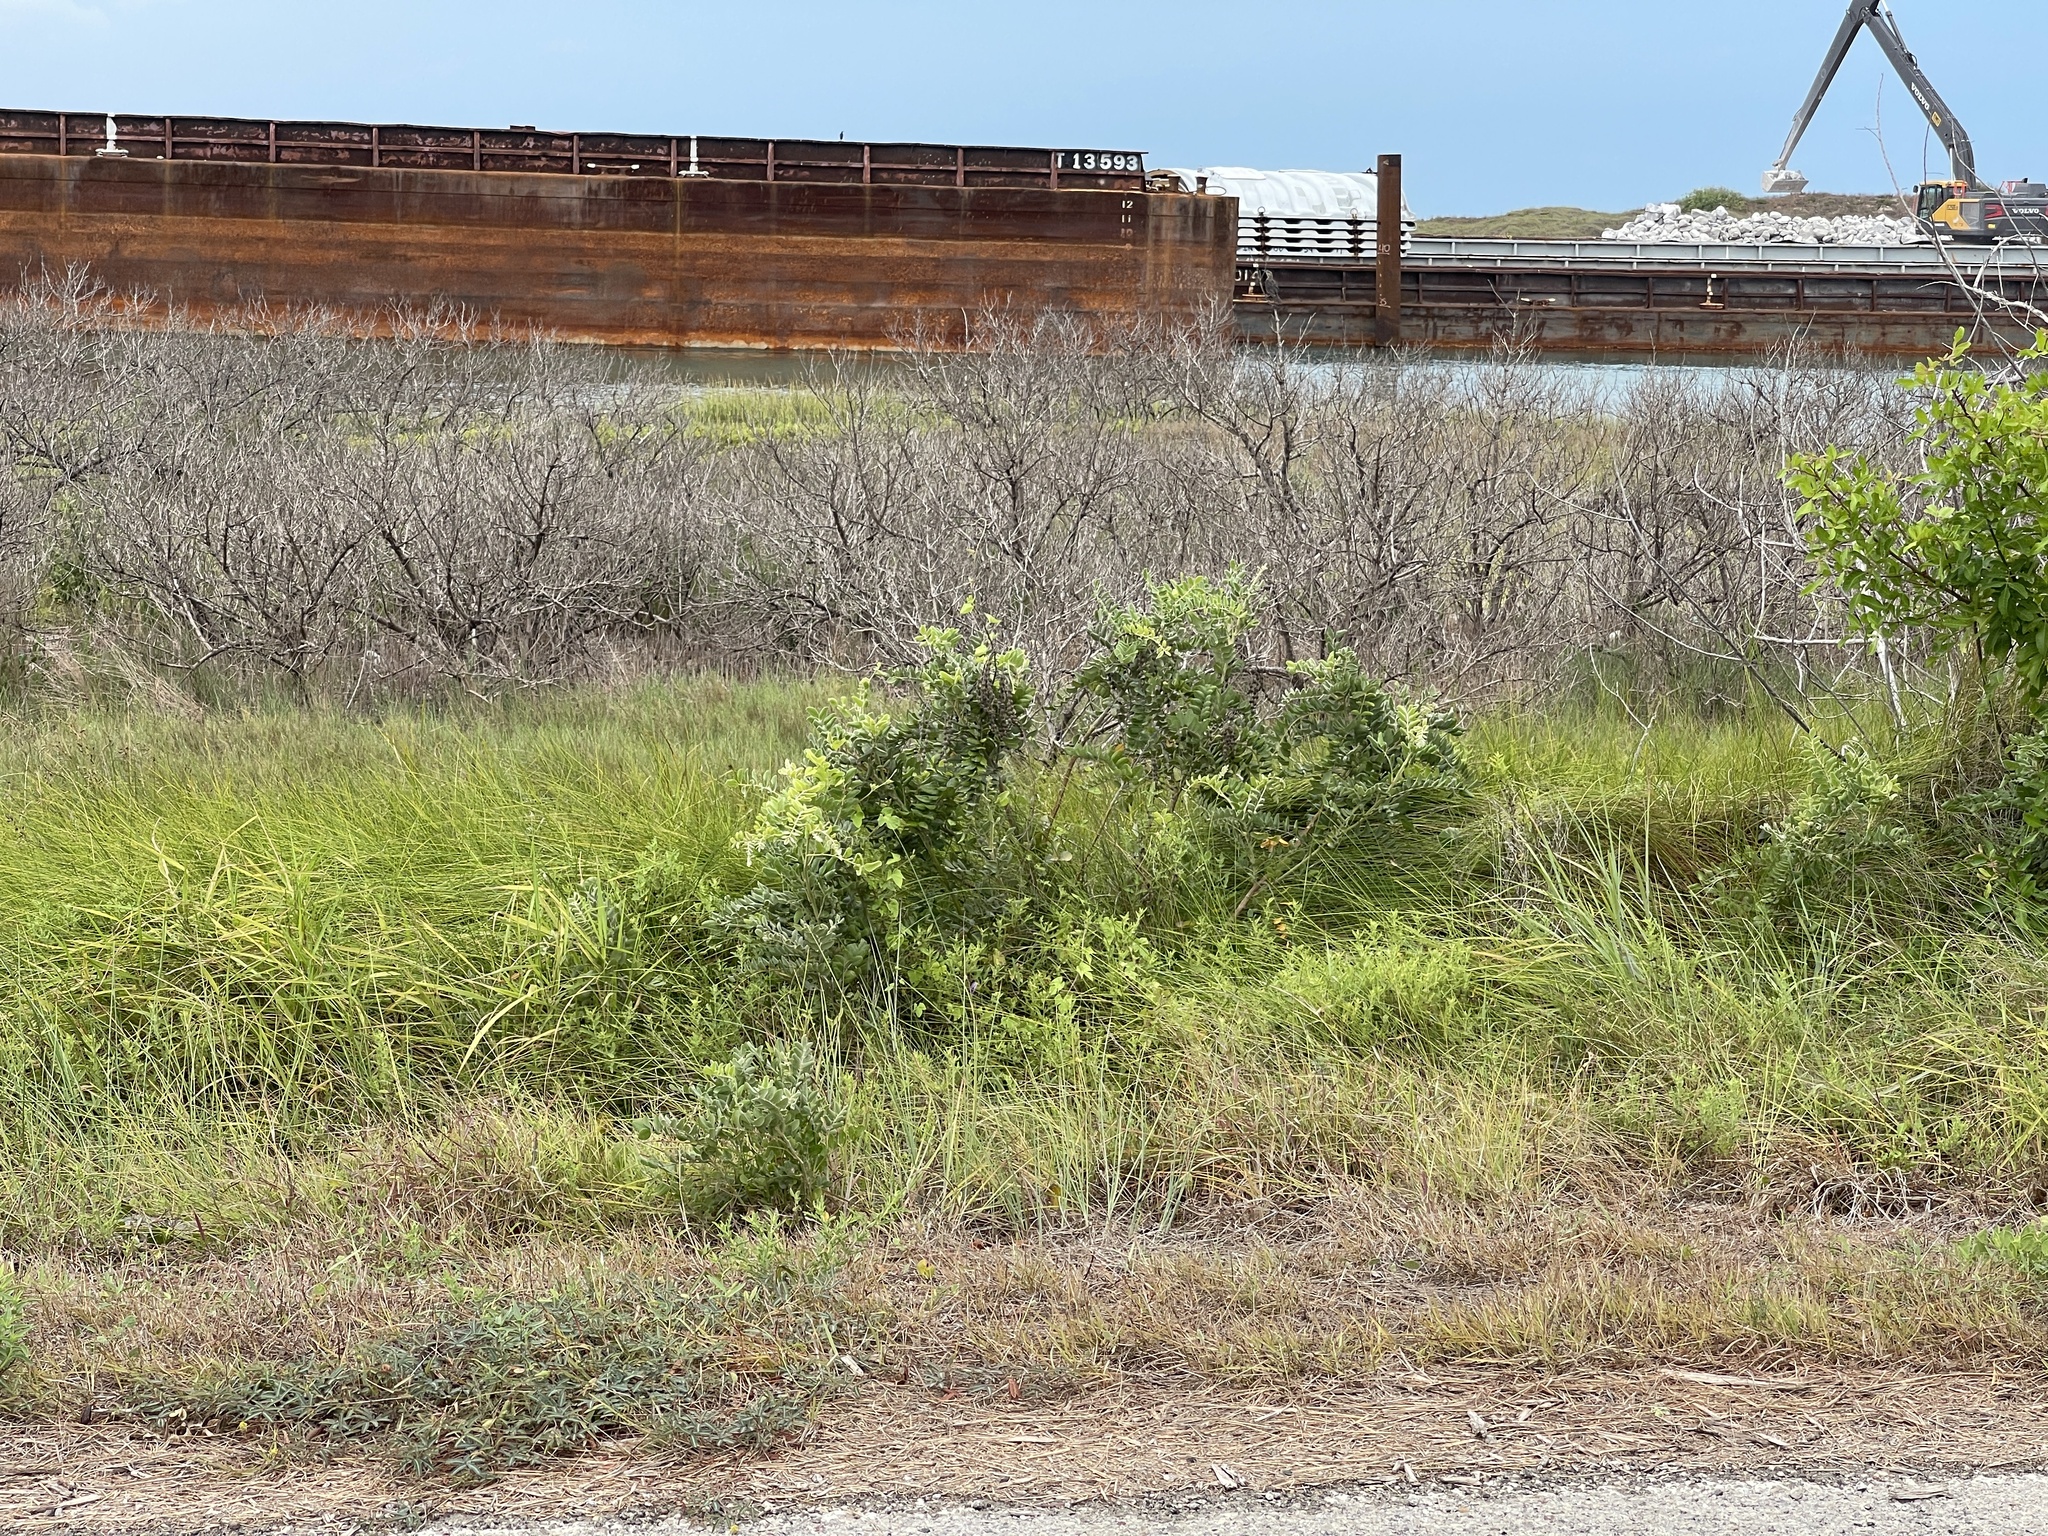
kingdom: Plantae
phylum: Tracheophyta
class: Magnoliopsida
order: Fabales
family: Fabaceae
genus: Sophora
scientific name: Sophora tomentosa
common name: Yellow necklacepod
